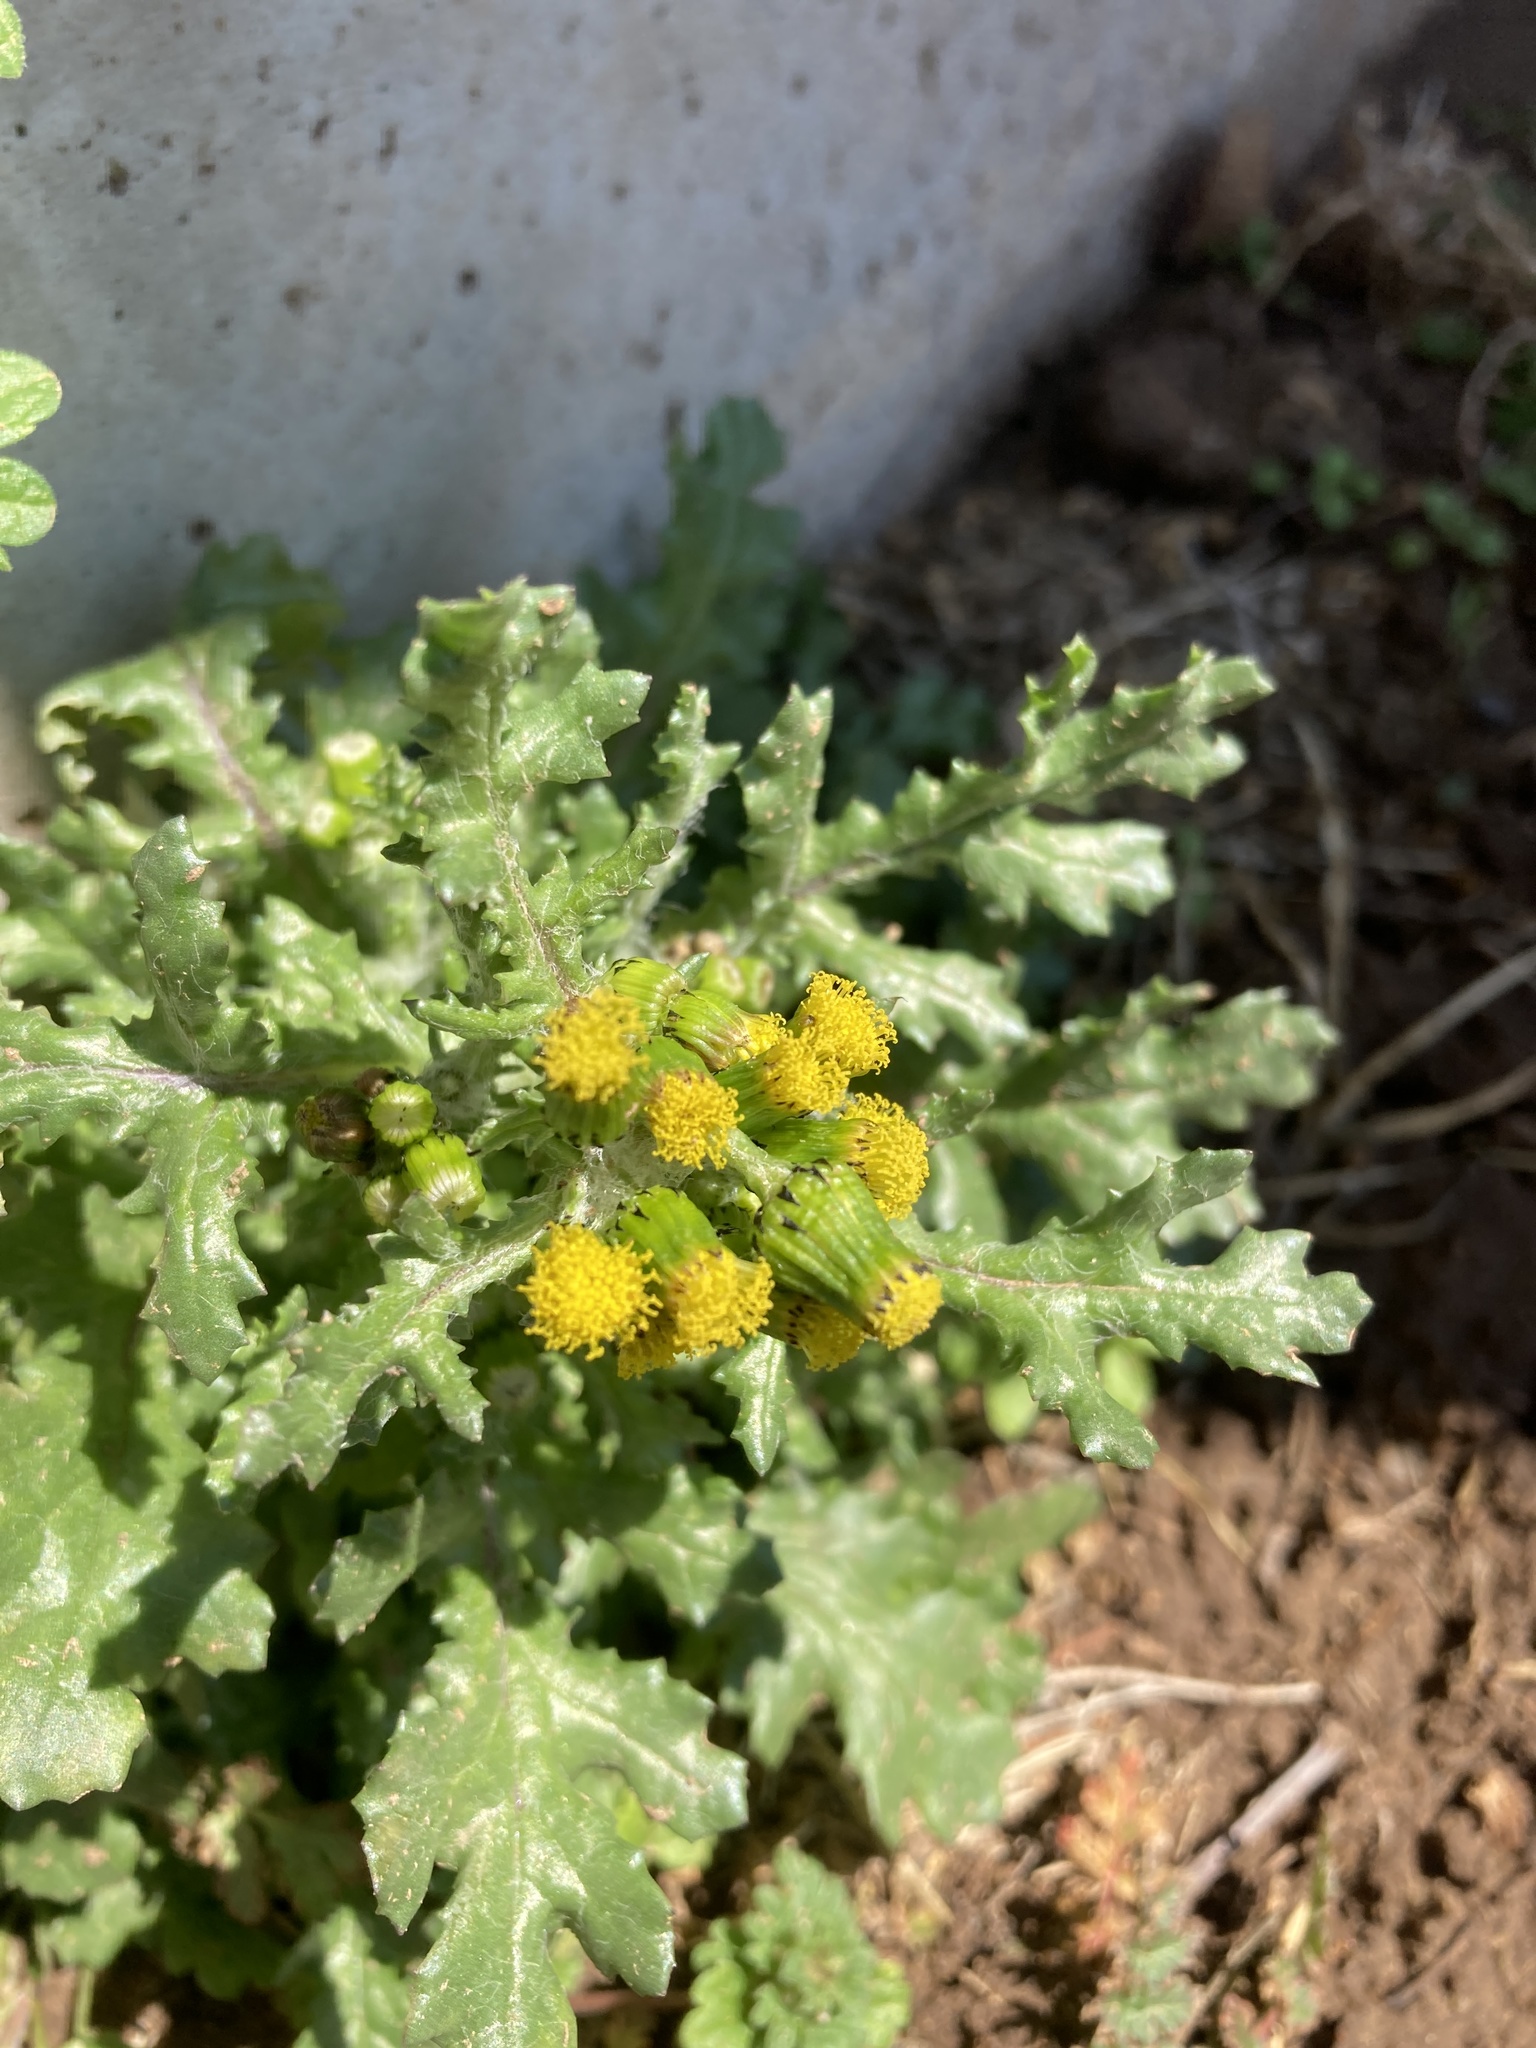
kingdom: Plantae
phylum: Tracheophyta
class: Magnoliopsida
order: Asterales
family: Asteraceae
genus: Senecio
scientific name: Senecio vulgaris
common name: Old-man-in-the-spring
